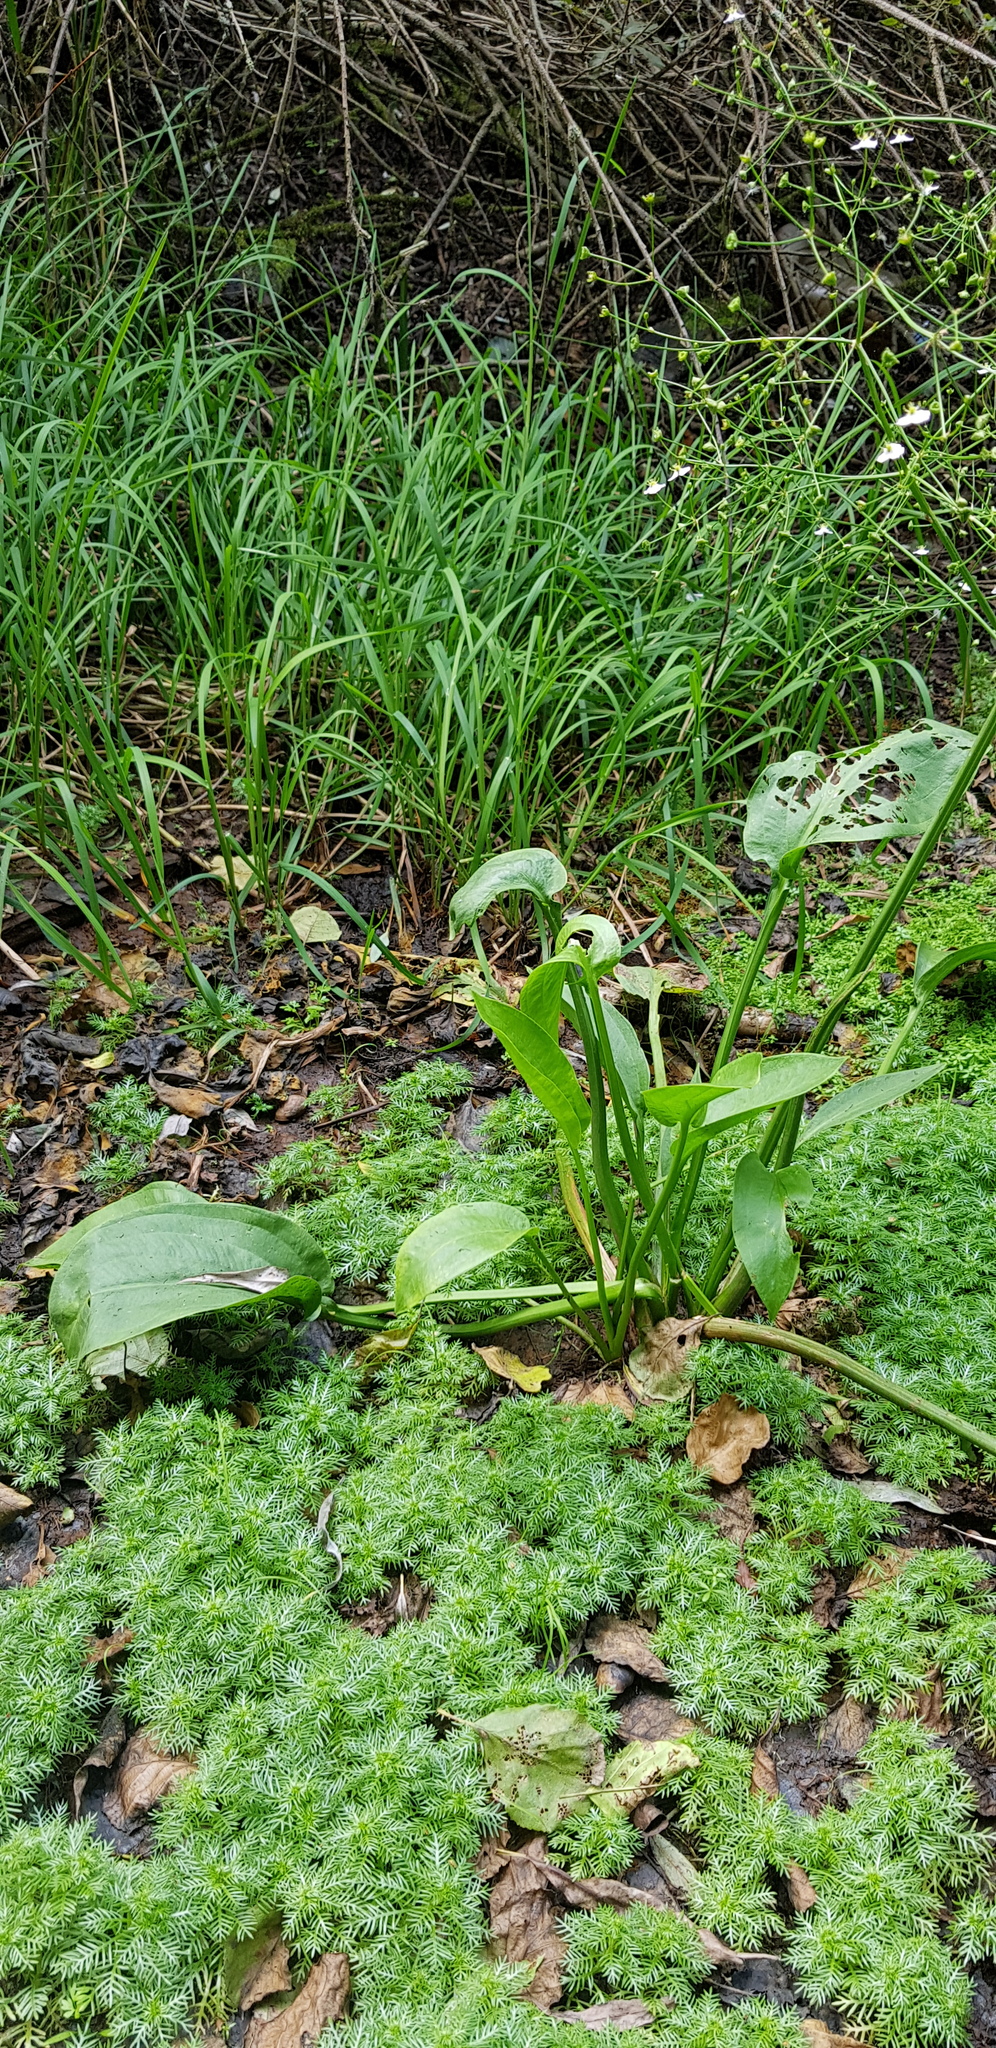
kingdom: Plantae
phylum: Tracheophyta
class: Liliopsida
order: Alismatales
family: Alismataceae
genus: Alisma
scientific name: Alisma plantago-aquatica
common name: Water-plantain
